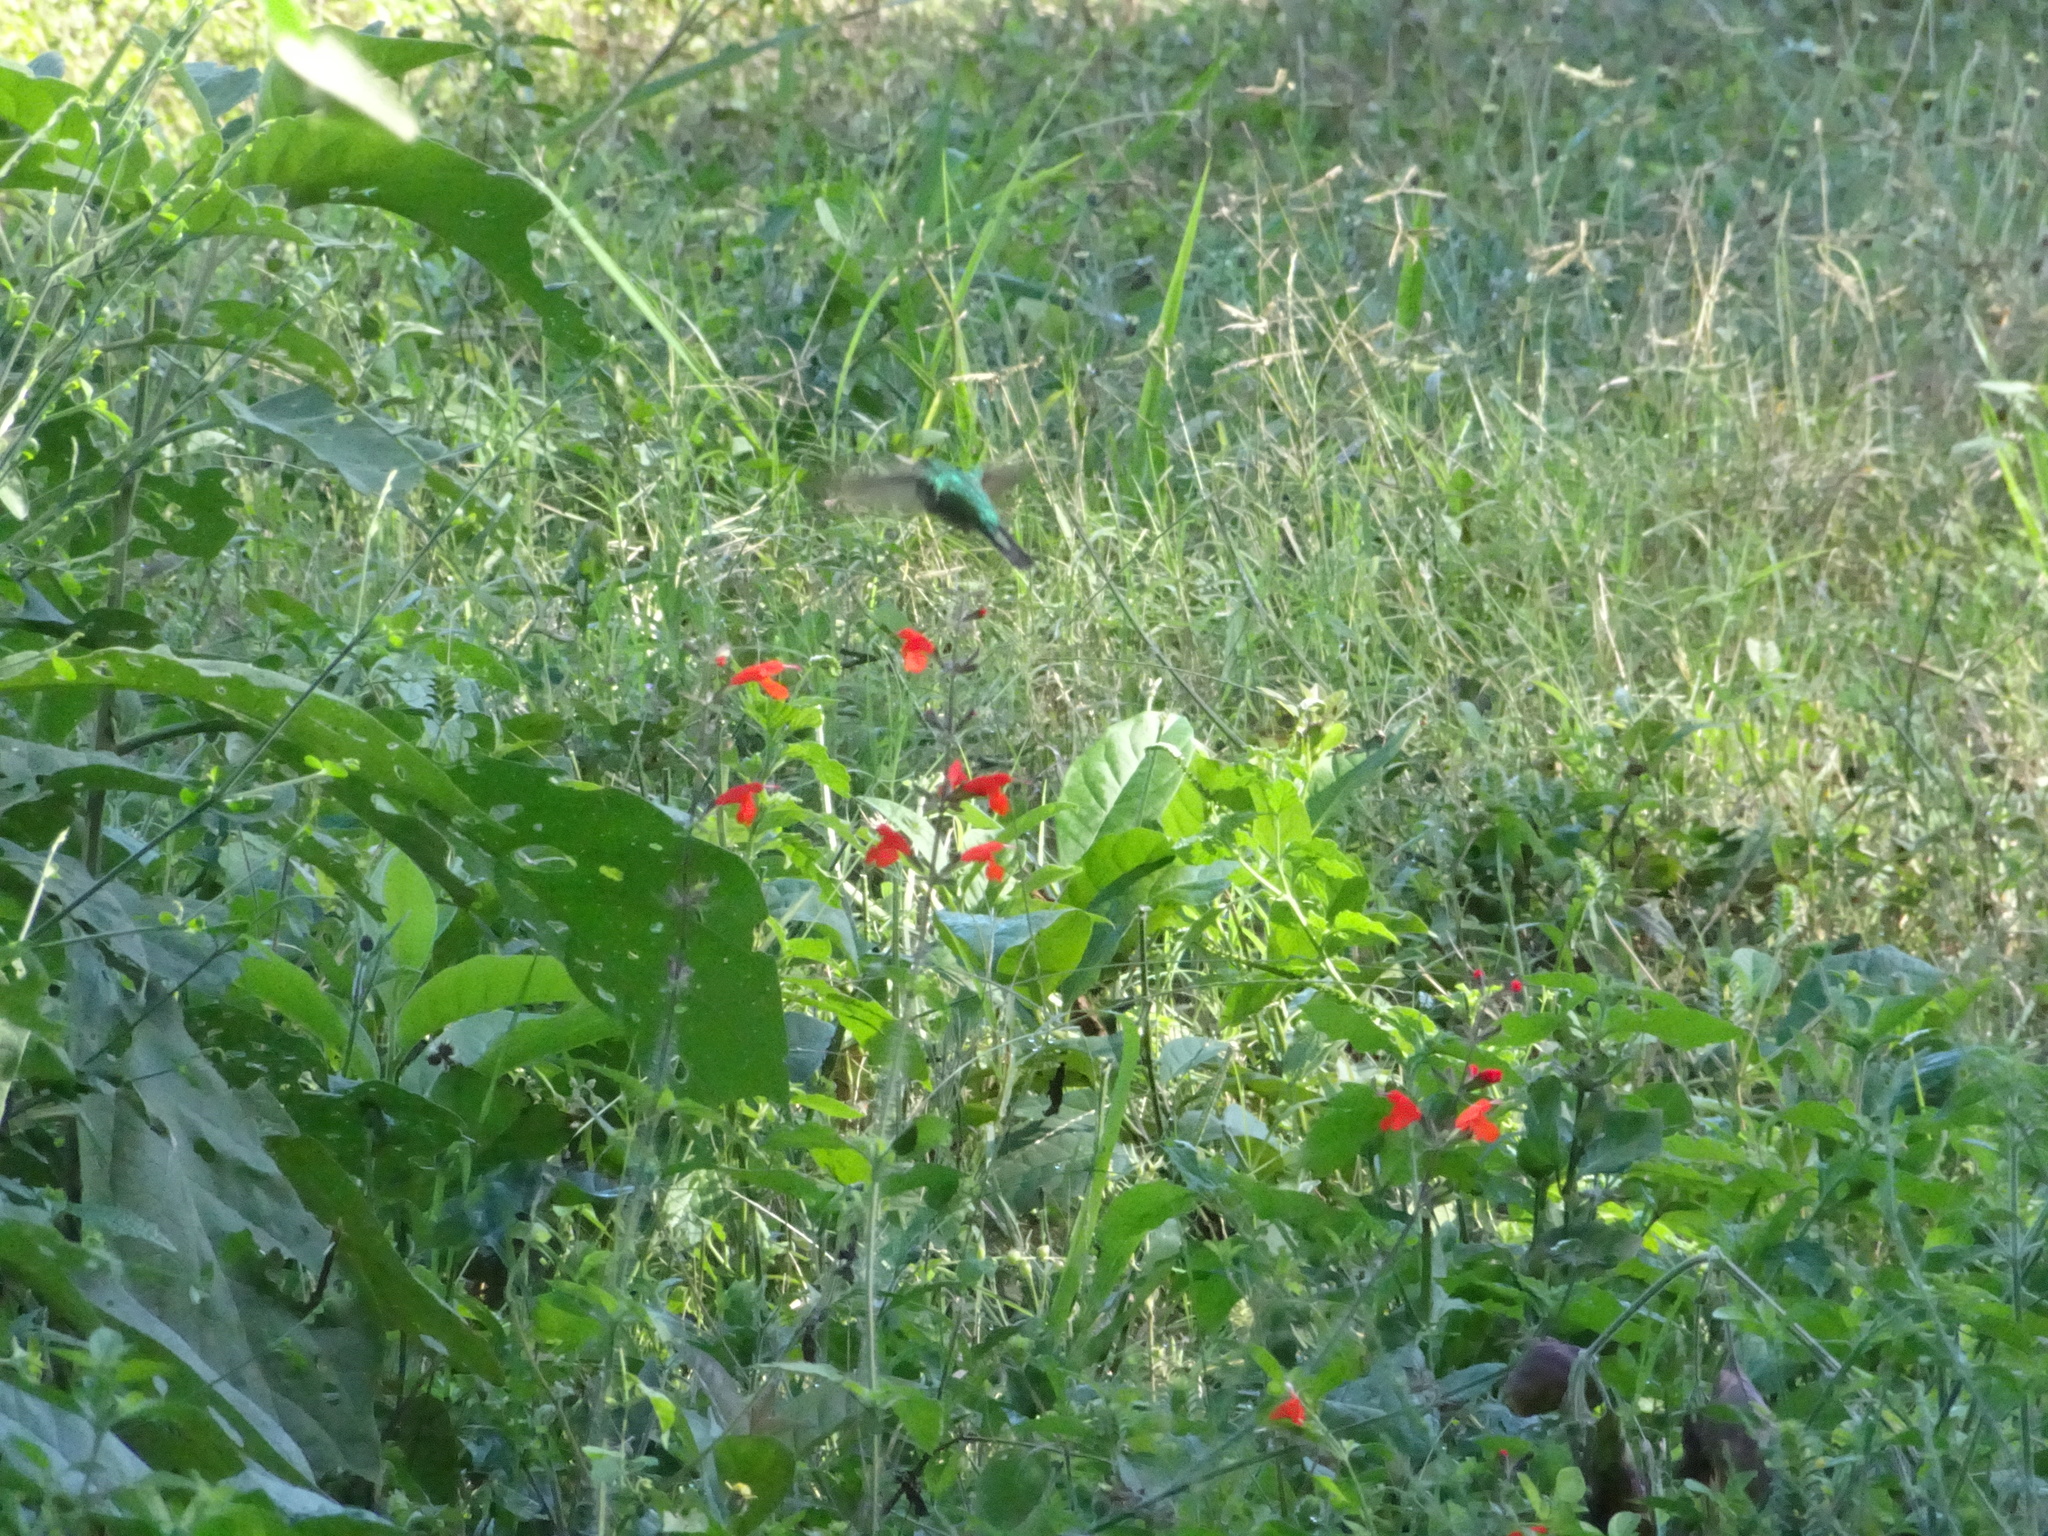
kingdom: Animalia
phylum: Chordata
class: Aves
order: Apodiformes
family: Trochilidae
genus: Cynanthus
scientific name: Cynanthus canivetii
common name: Canivet's emerald
